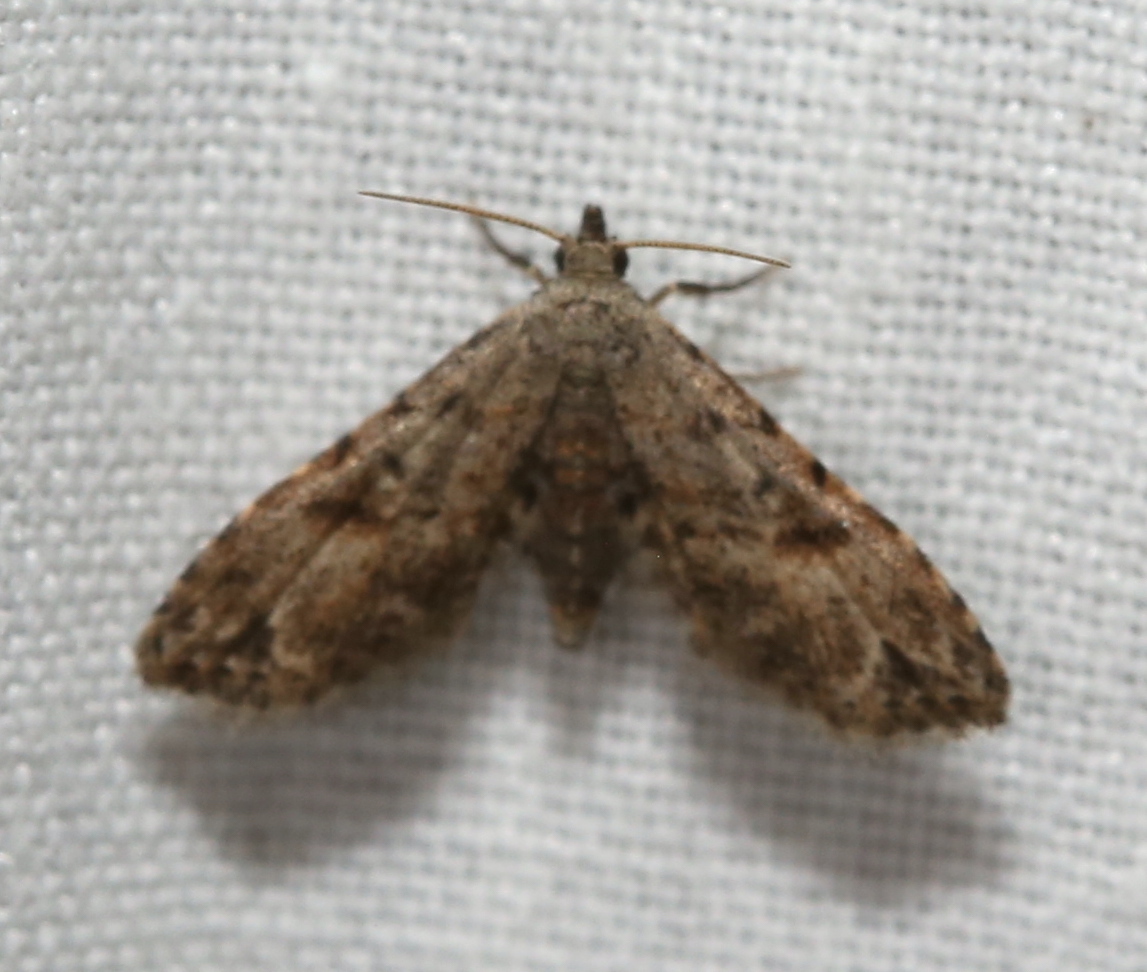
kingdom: Animalia
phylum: Arthropoda
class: Insecta
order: Lepidoptera
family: Erebidae
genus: Sigela
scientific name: Sigela brauneata
